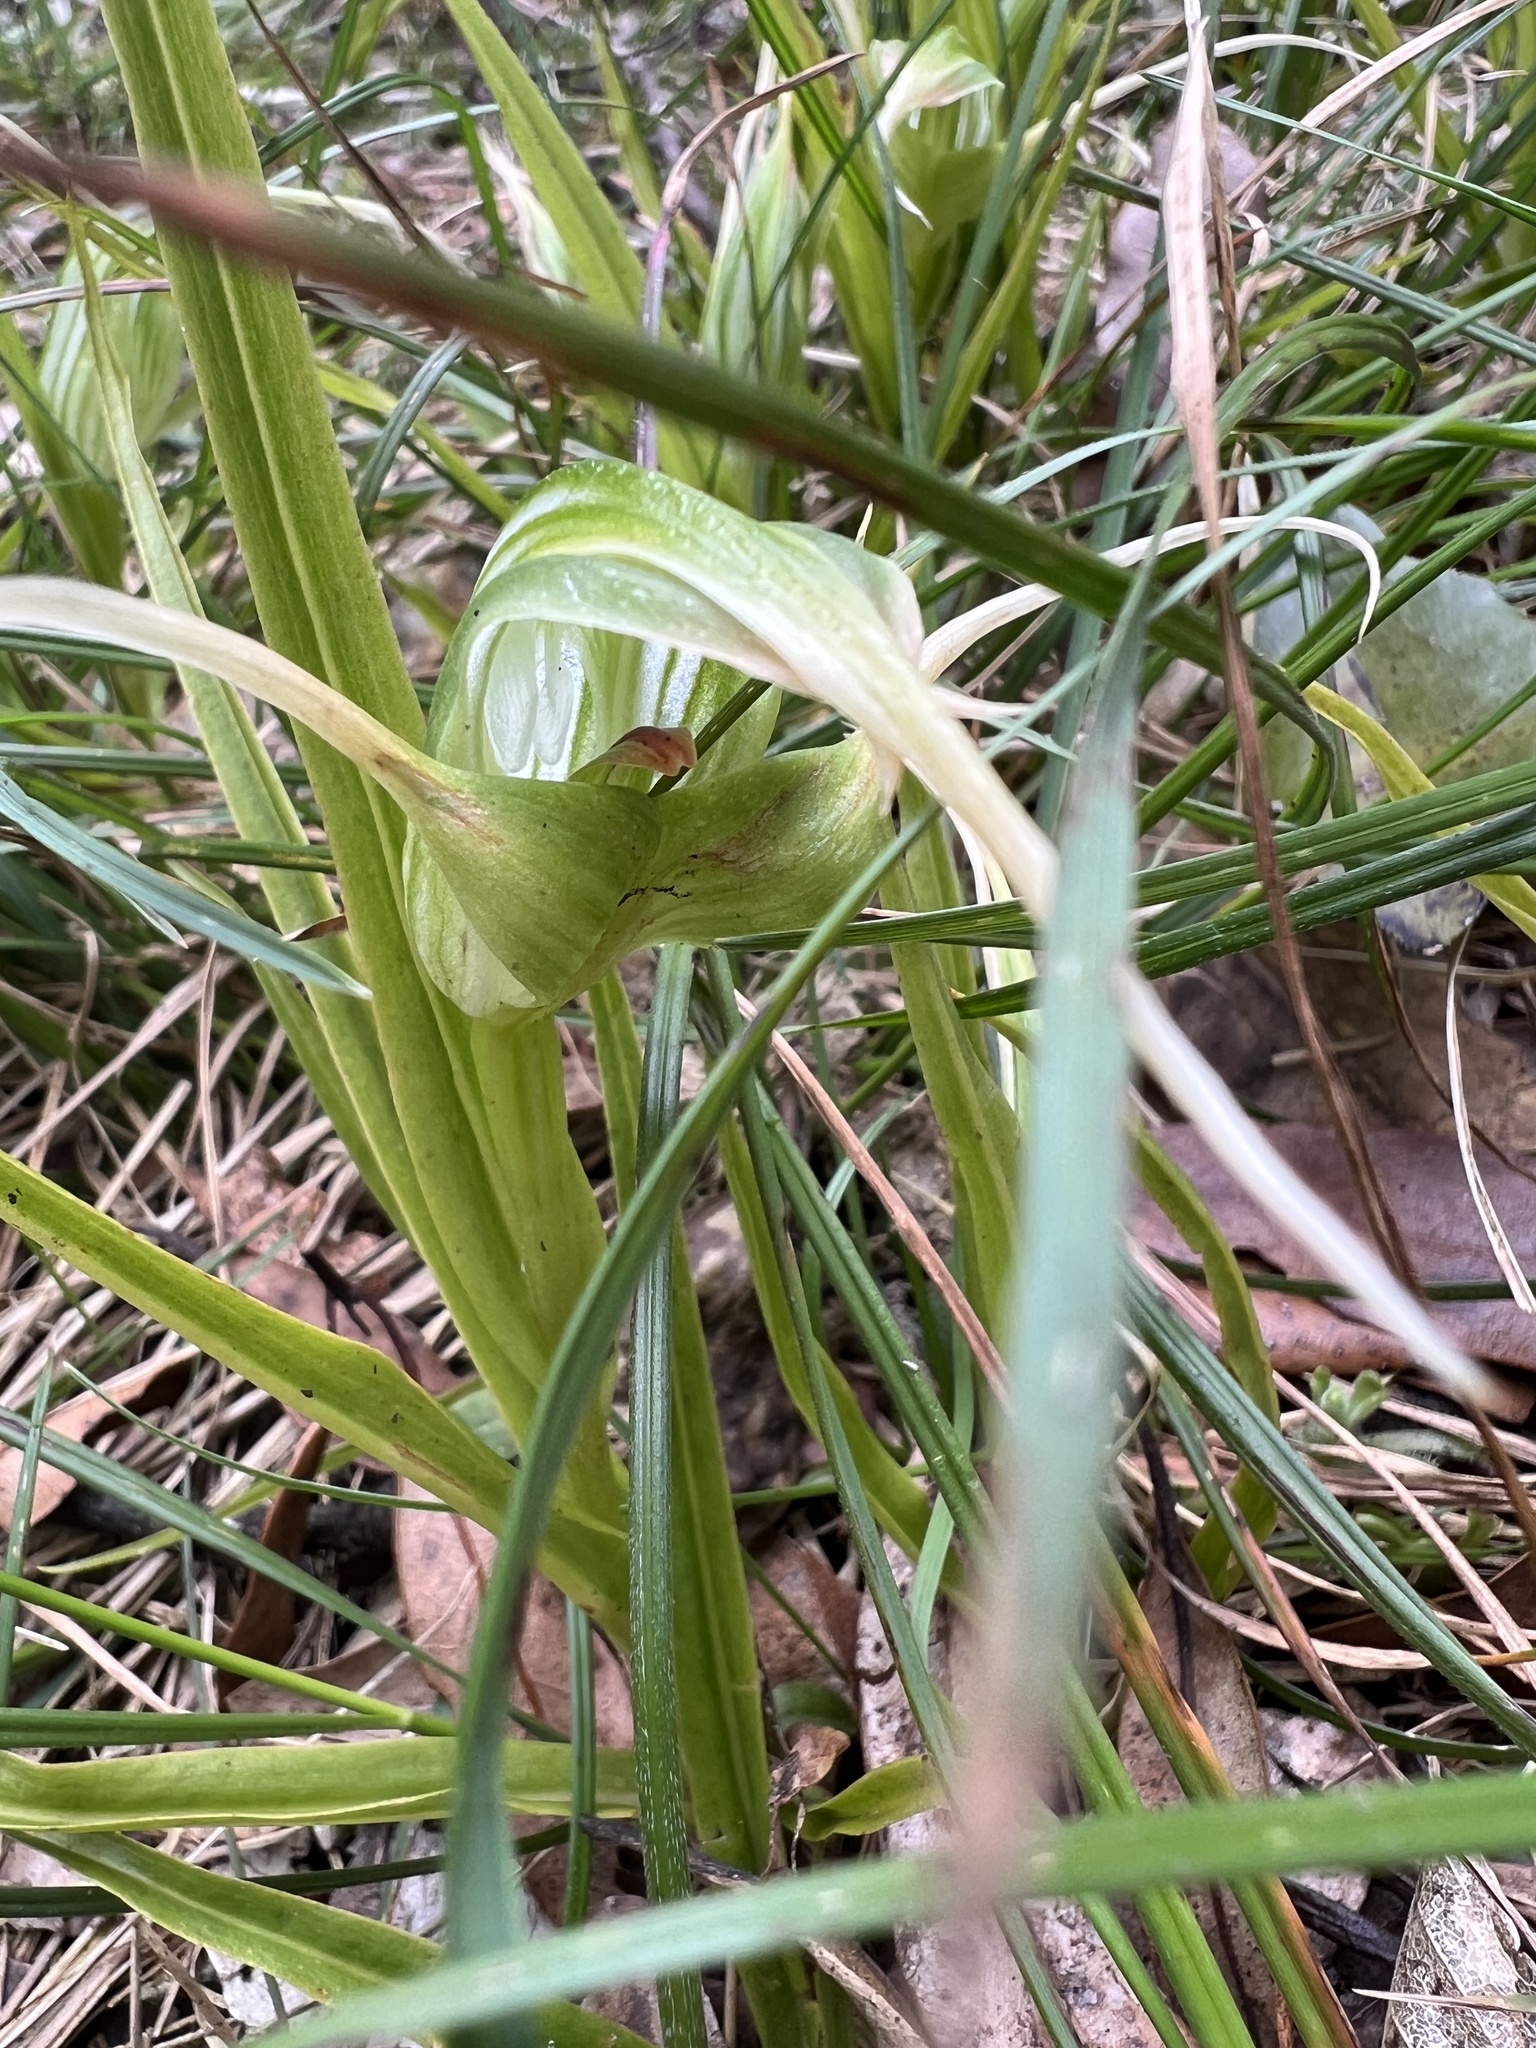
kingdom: Plantae
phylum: Tracheophyta
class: Liliopsida
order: Asparagales
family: Orchidaceae
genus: Pterostylis
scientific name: Pterostylis banksii
